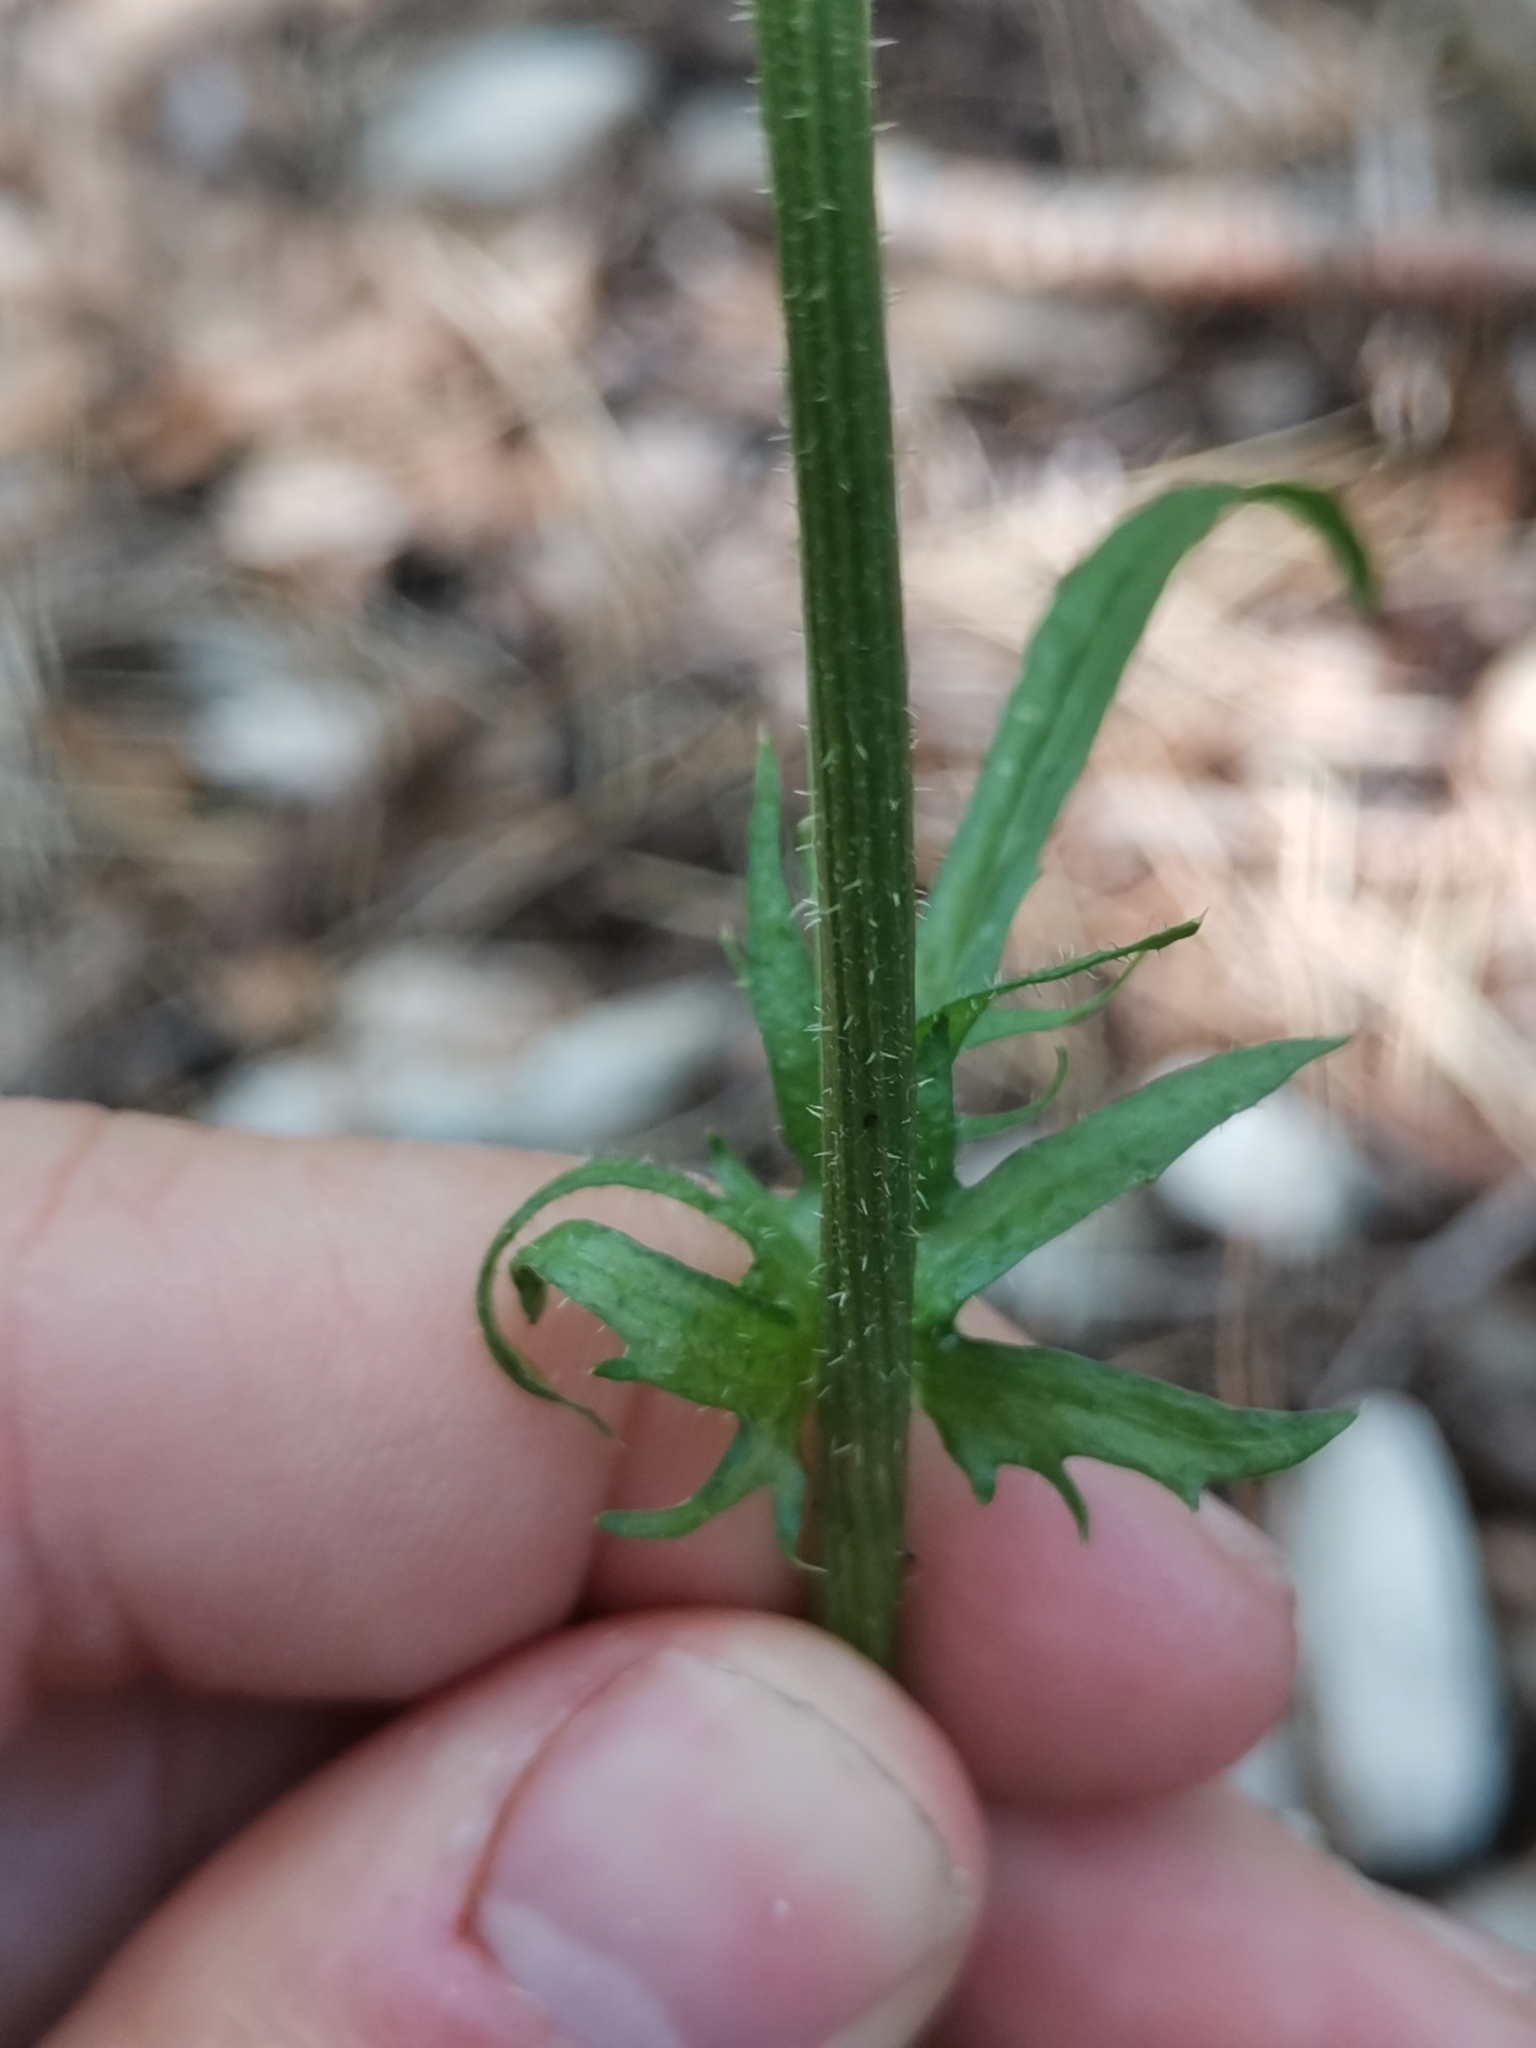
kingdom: Plantae
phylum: Tracheophyta
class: Magnoliopsida
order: Asterales
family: Asteraceae
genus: Crepis
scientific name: Crepis capillaris
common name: Smooth hawksbeard
